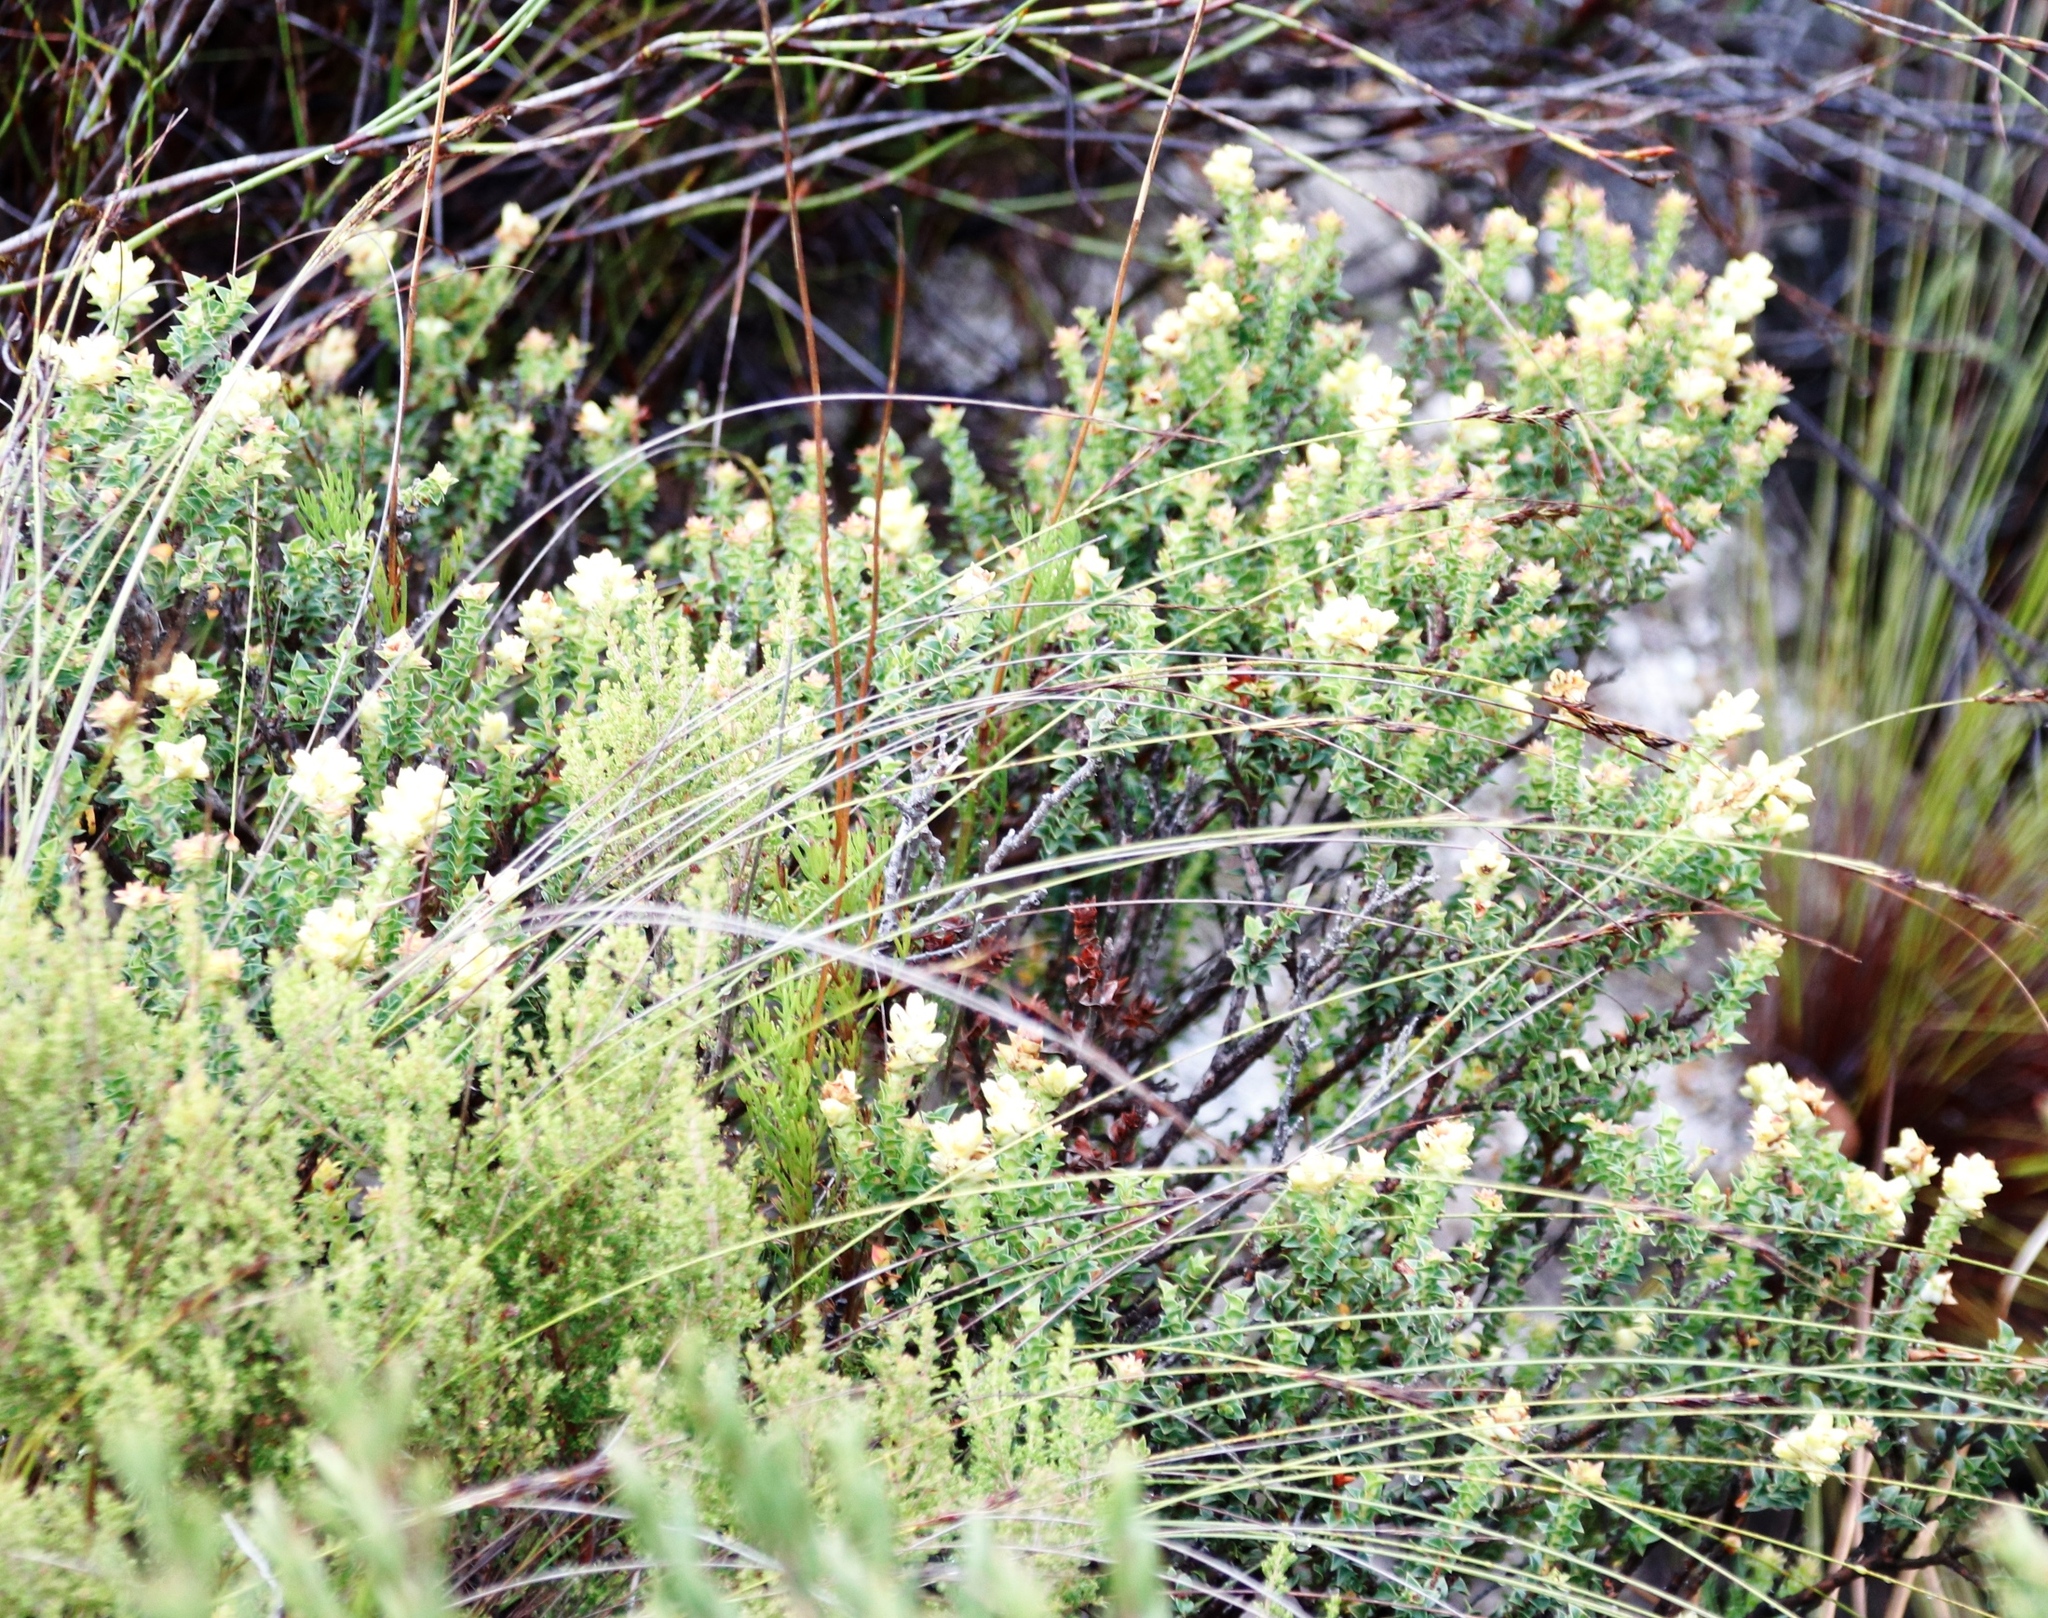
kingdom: Plantae
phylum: Tracheophyta
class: Magnoliopsida
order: Myrtales
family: Penaeaceae
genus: Penaea
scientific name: Penaea mucronata
